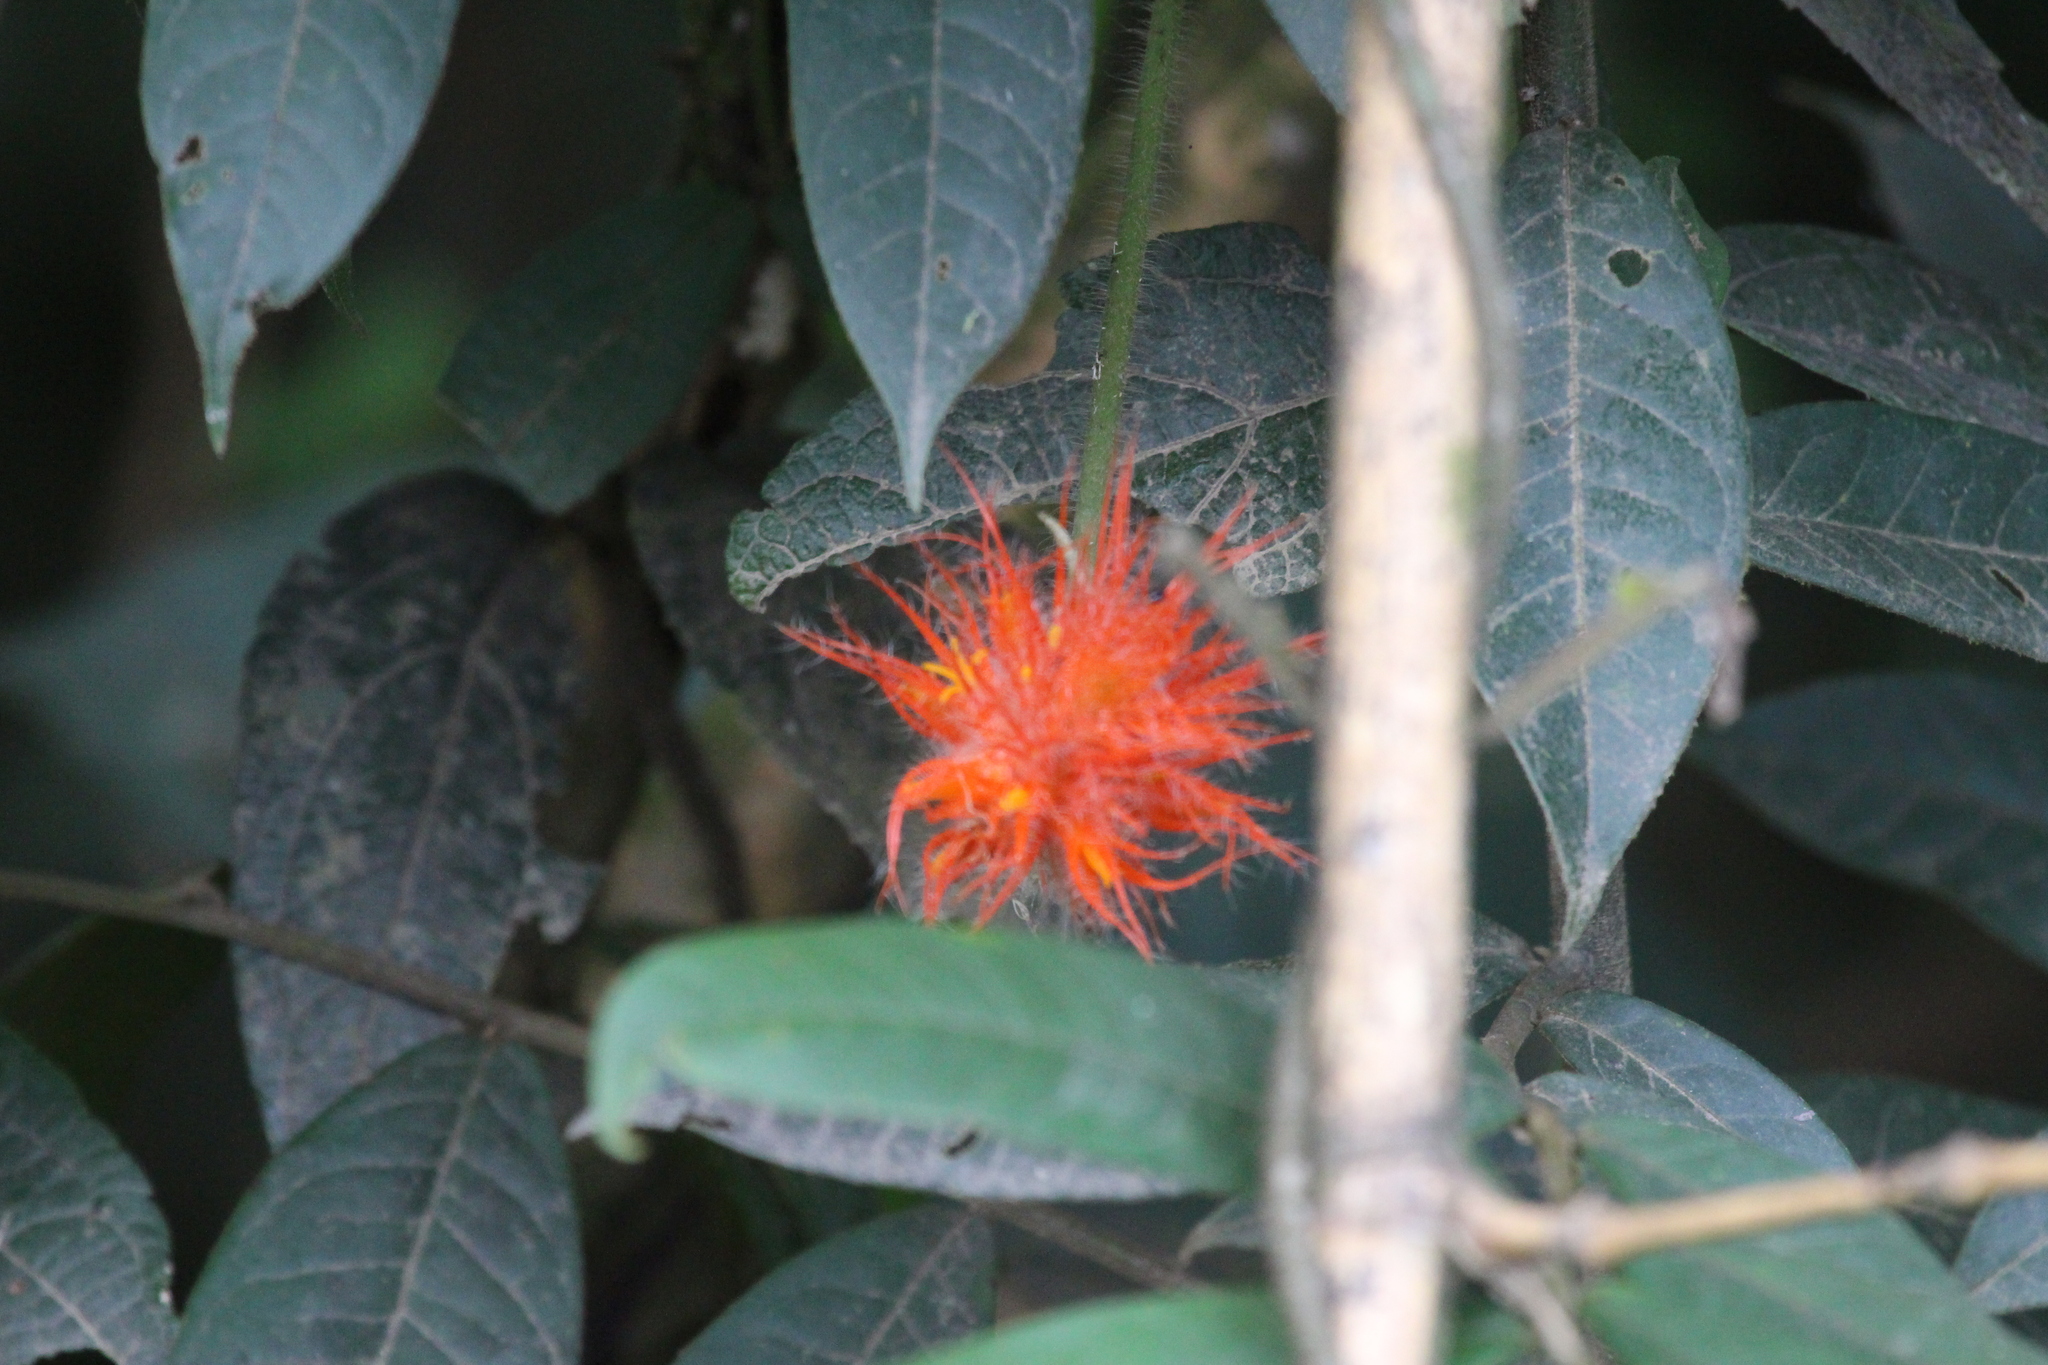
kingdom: Plantae
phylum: Tracheophyta
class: Magnoliopsida
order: Cucurbitales
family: Cucurbitaceae
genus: Gurania
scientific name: Gurania eriantha
